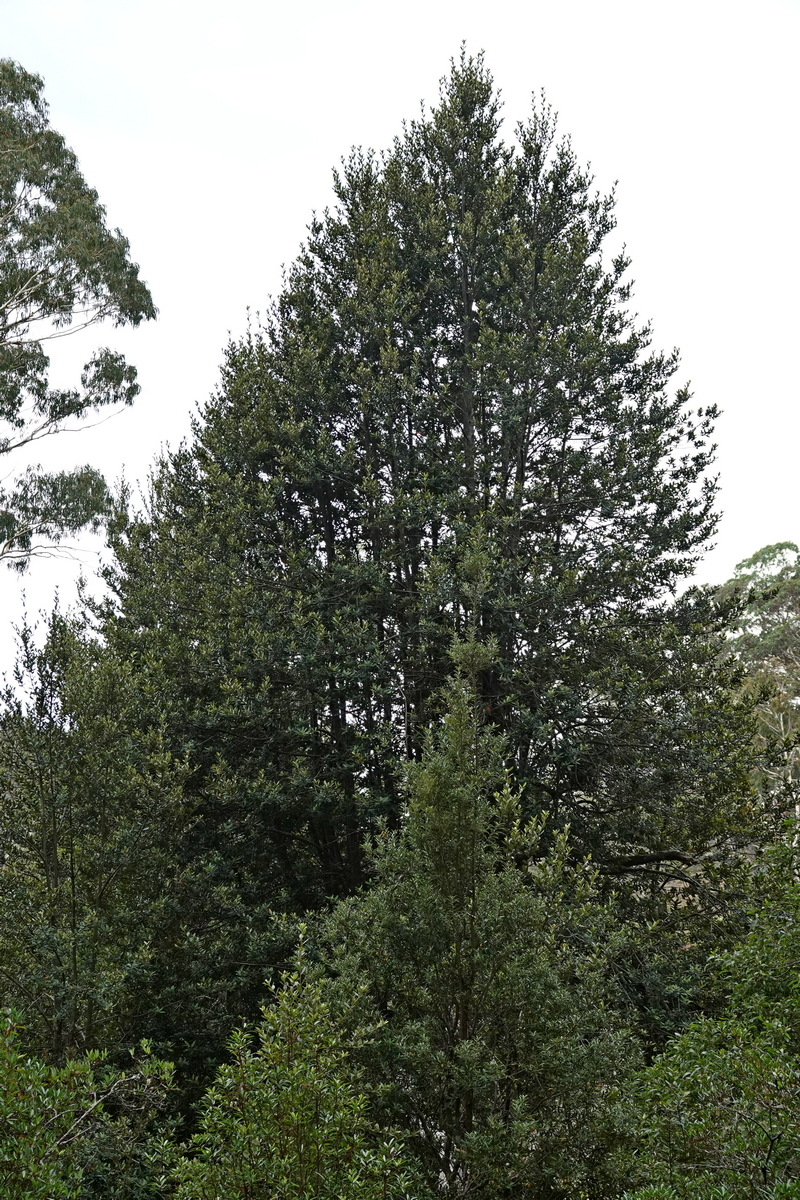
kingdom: Plantae
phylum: Tracheophyta
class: Magnoliopsida
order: Oxalidales
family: Elaeocarpaceae
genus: Elaeocarpus
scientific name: Elaeocarpus holopetalus
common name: Black olive berry
